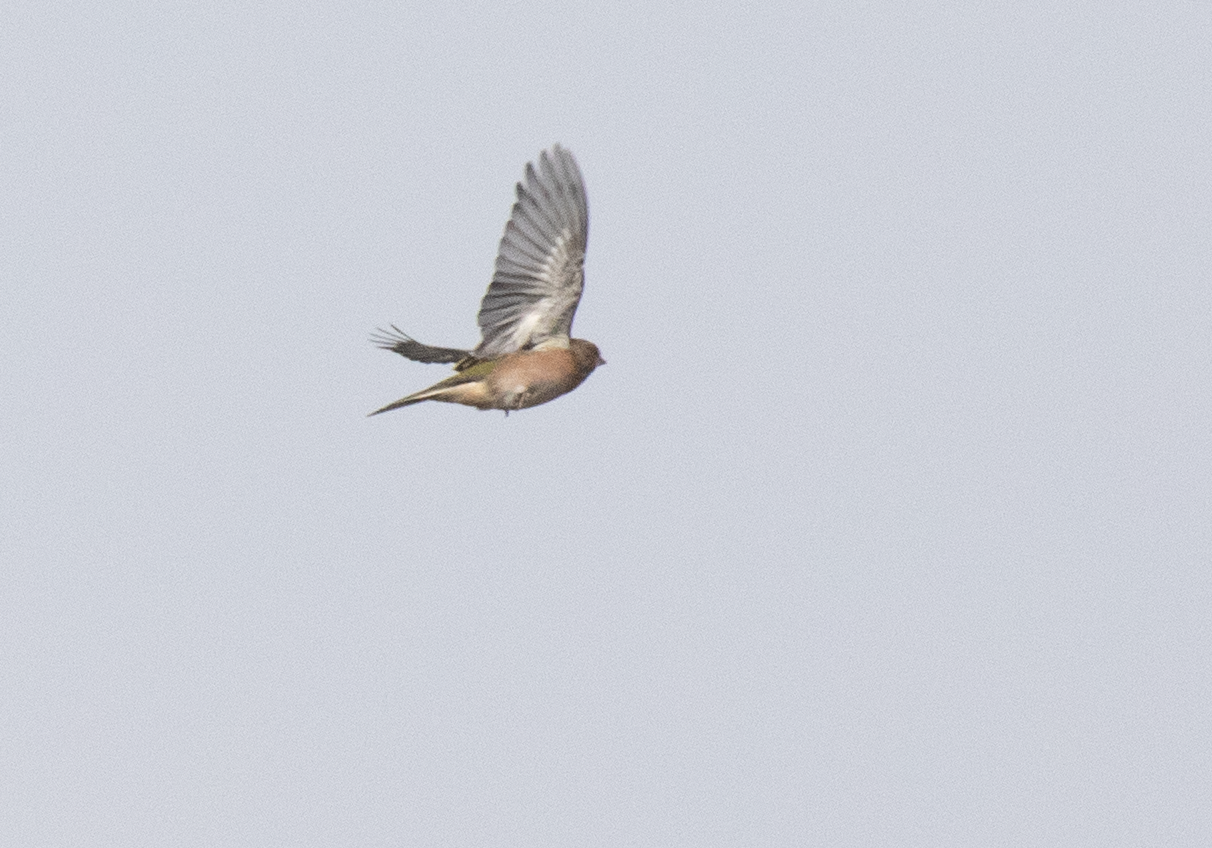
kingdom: Animalia
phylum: Chordata
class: Aves
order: Passeriformes
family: Fringillidae
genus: Fringilla
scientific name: Fringilla coelebs
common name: Common chaffinch
